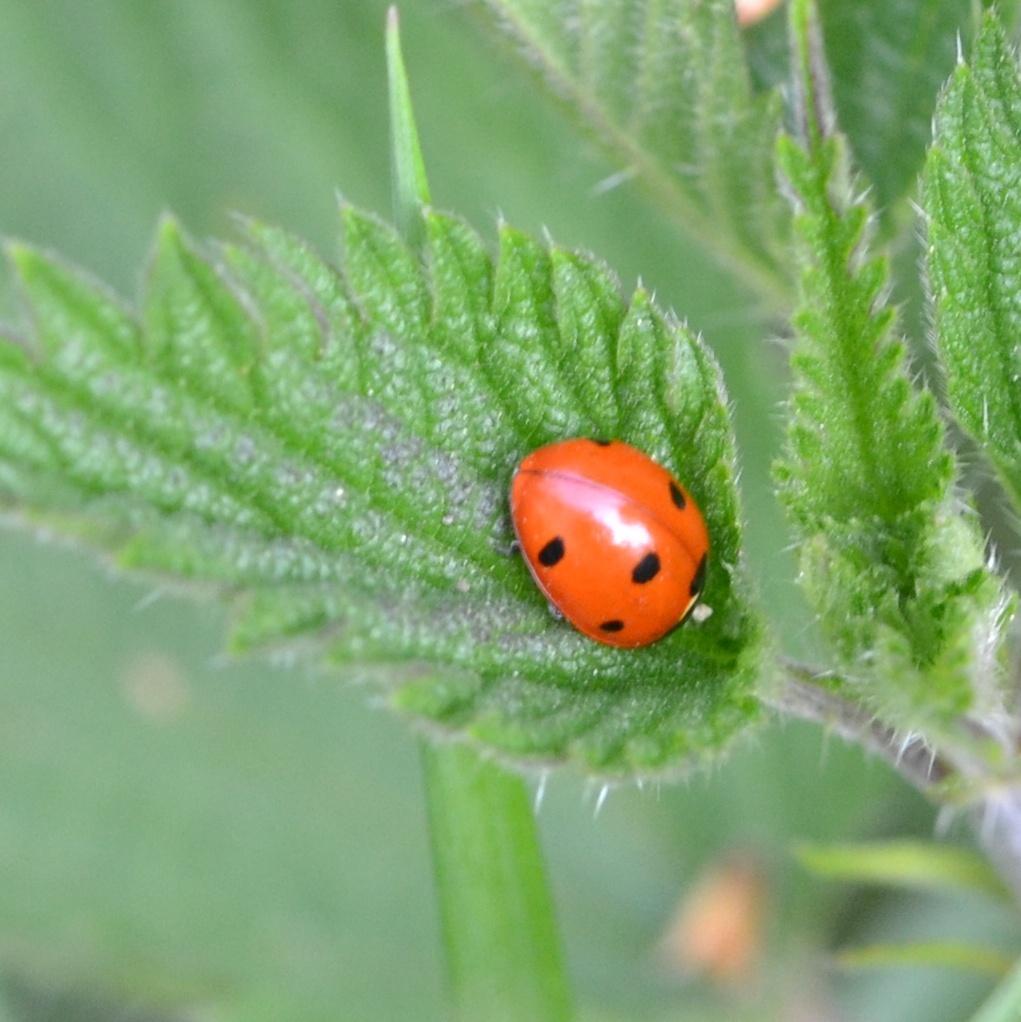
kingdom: Animalia
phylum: Arthropoda
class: Insecta
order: Coleoptera
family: Coccinellidae
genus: Coccinella
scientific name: Coccinella septempunctata
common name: Sevenspotted lady beetle
